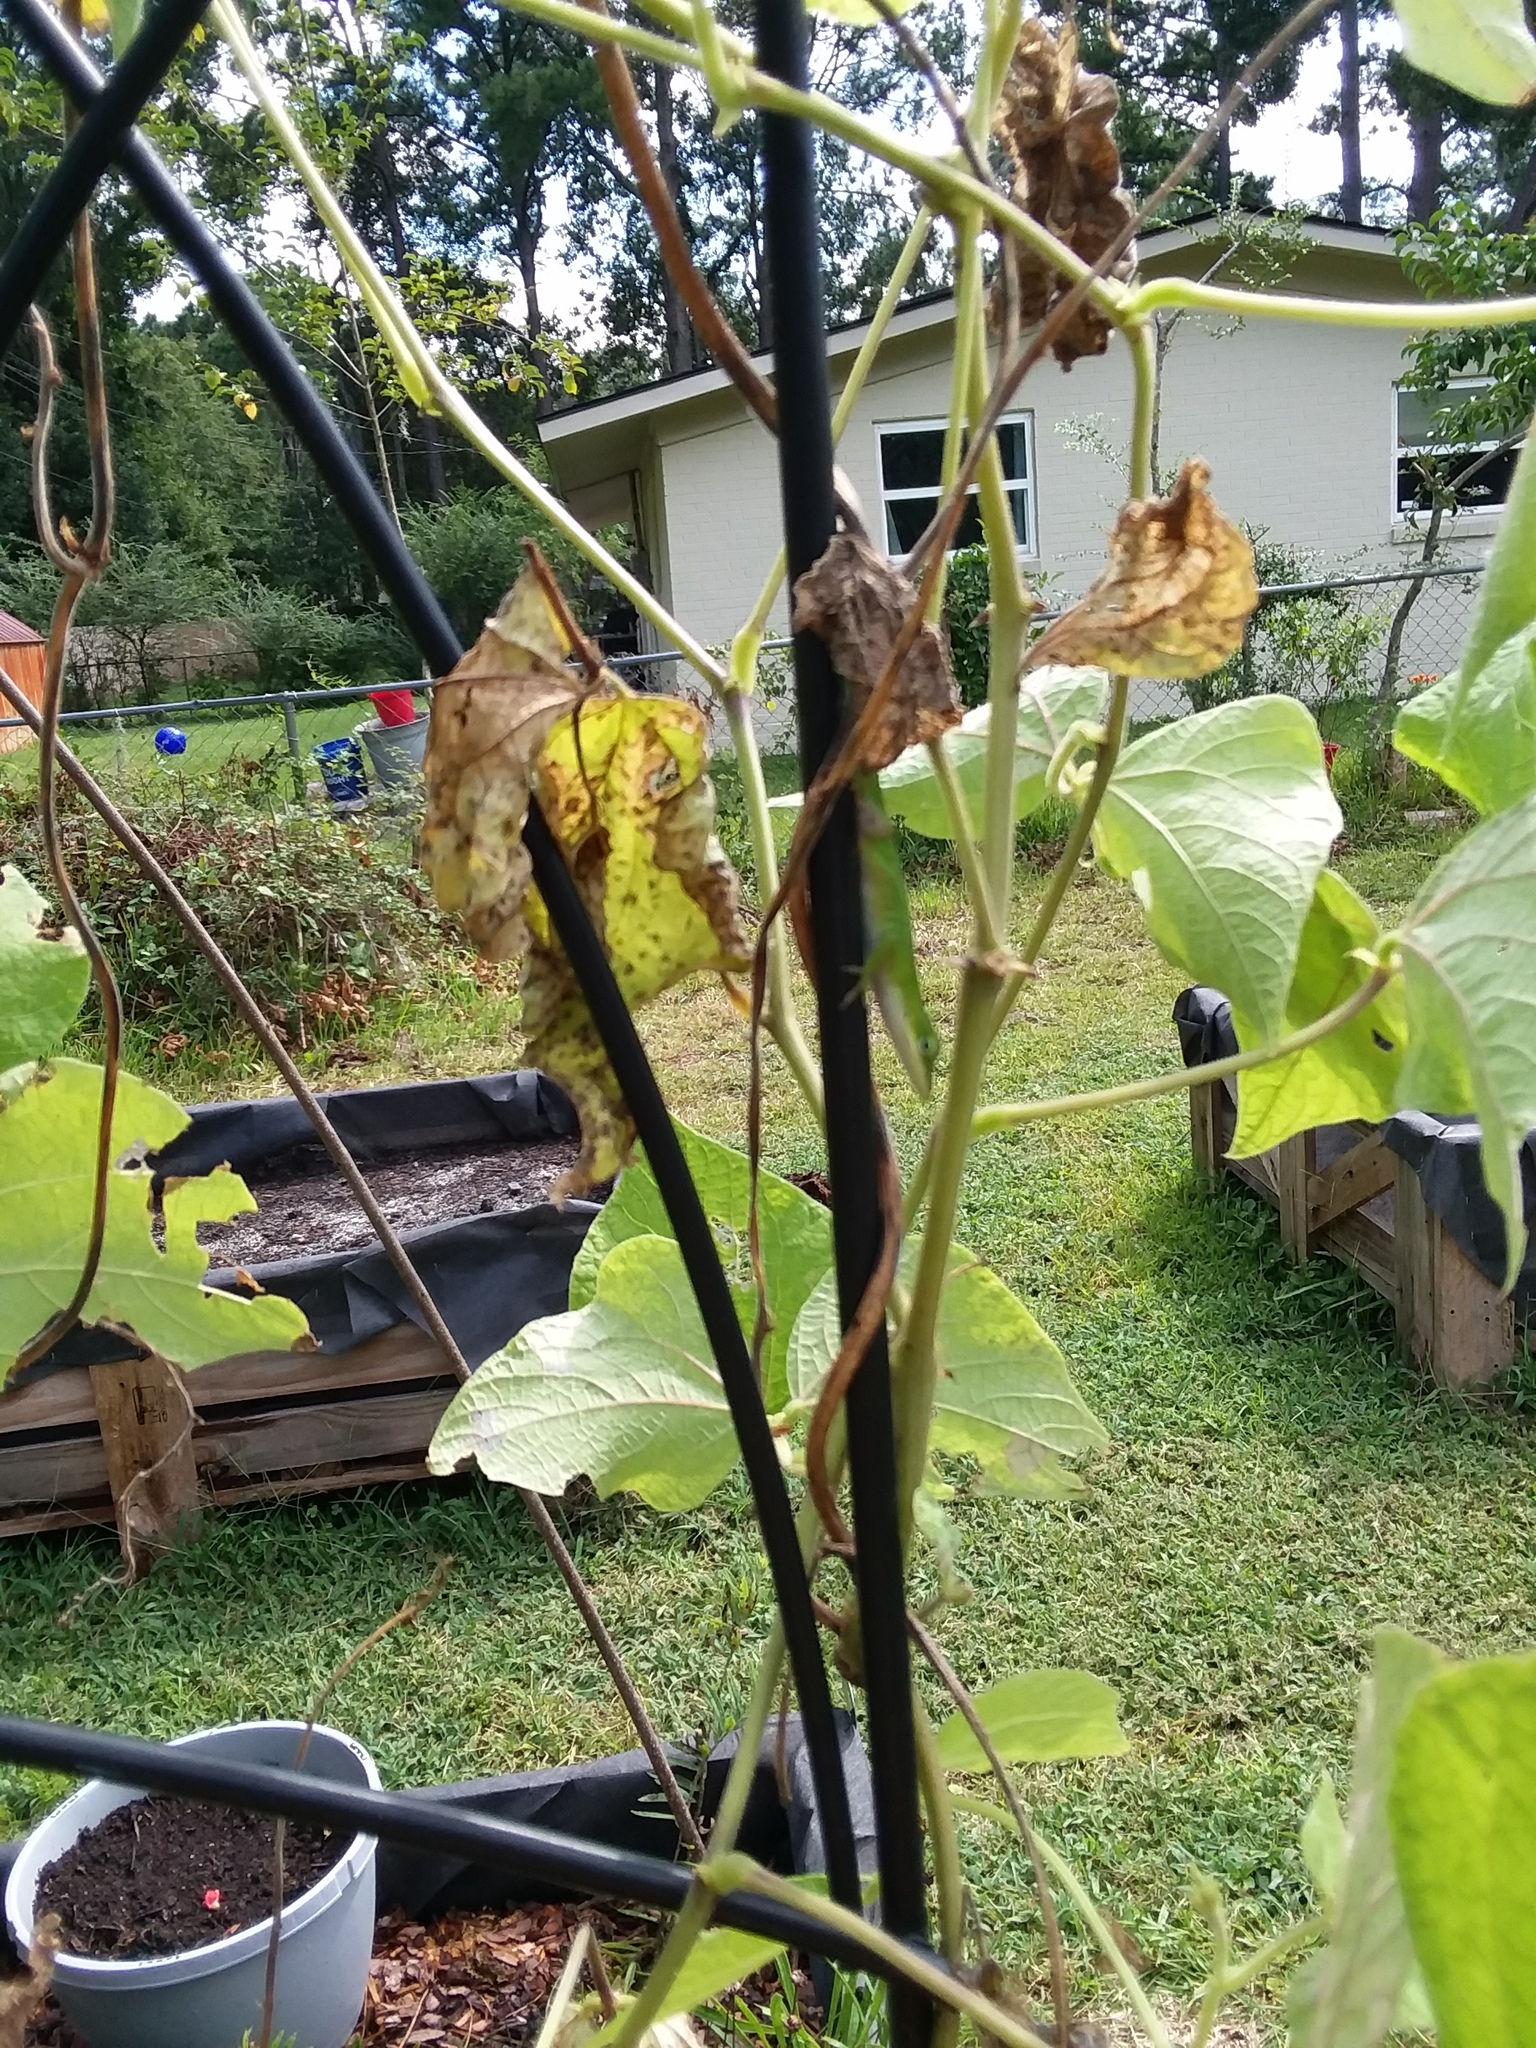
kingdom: Animalia
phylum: Chordata
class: Squamata
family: Dactyloidae
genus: Anolis
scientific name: Anolis carolinensis
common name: Green anole
